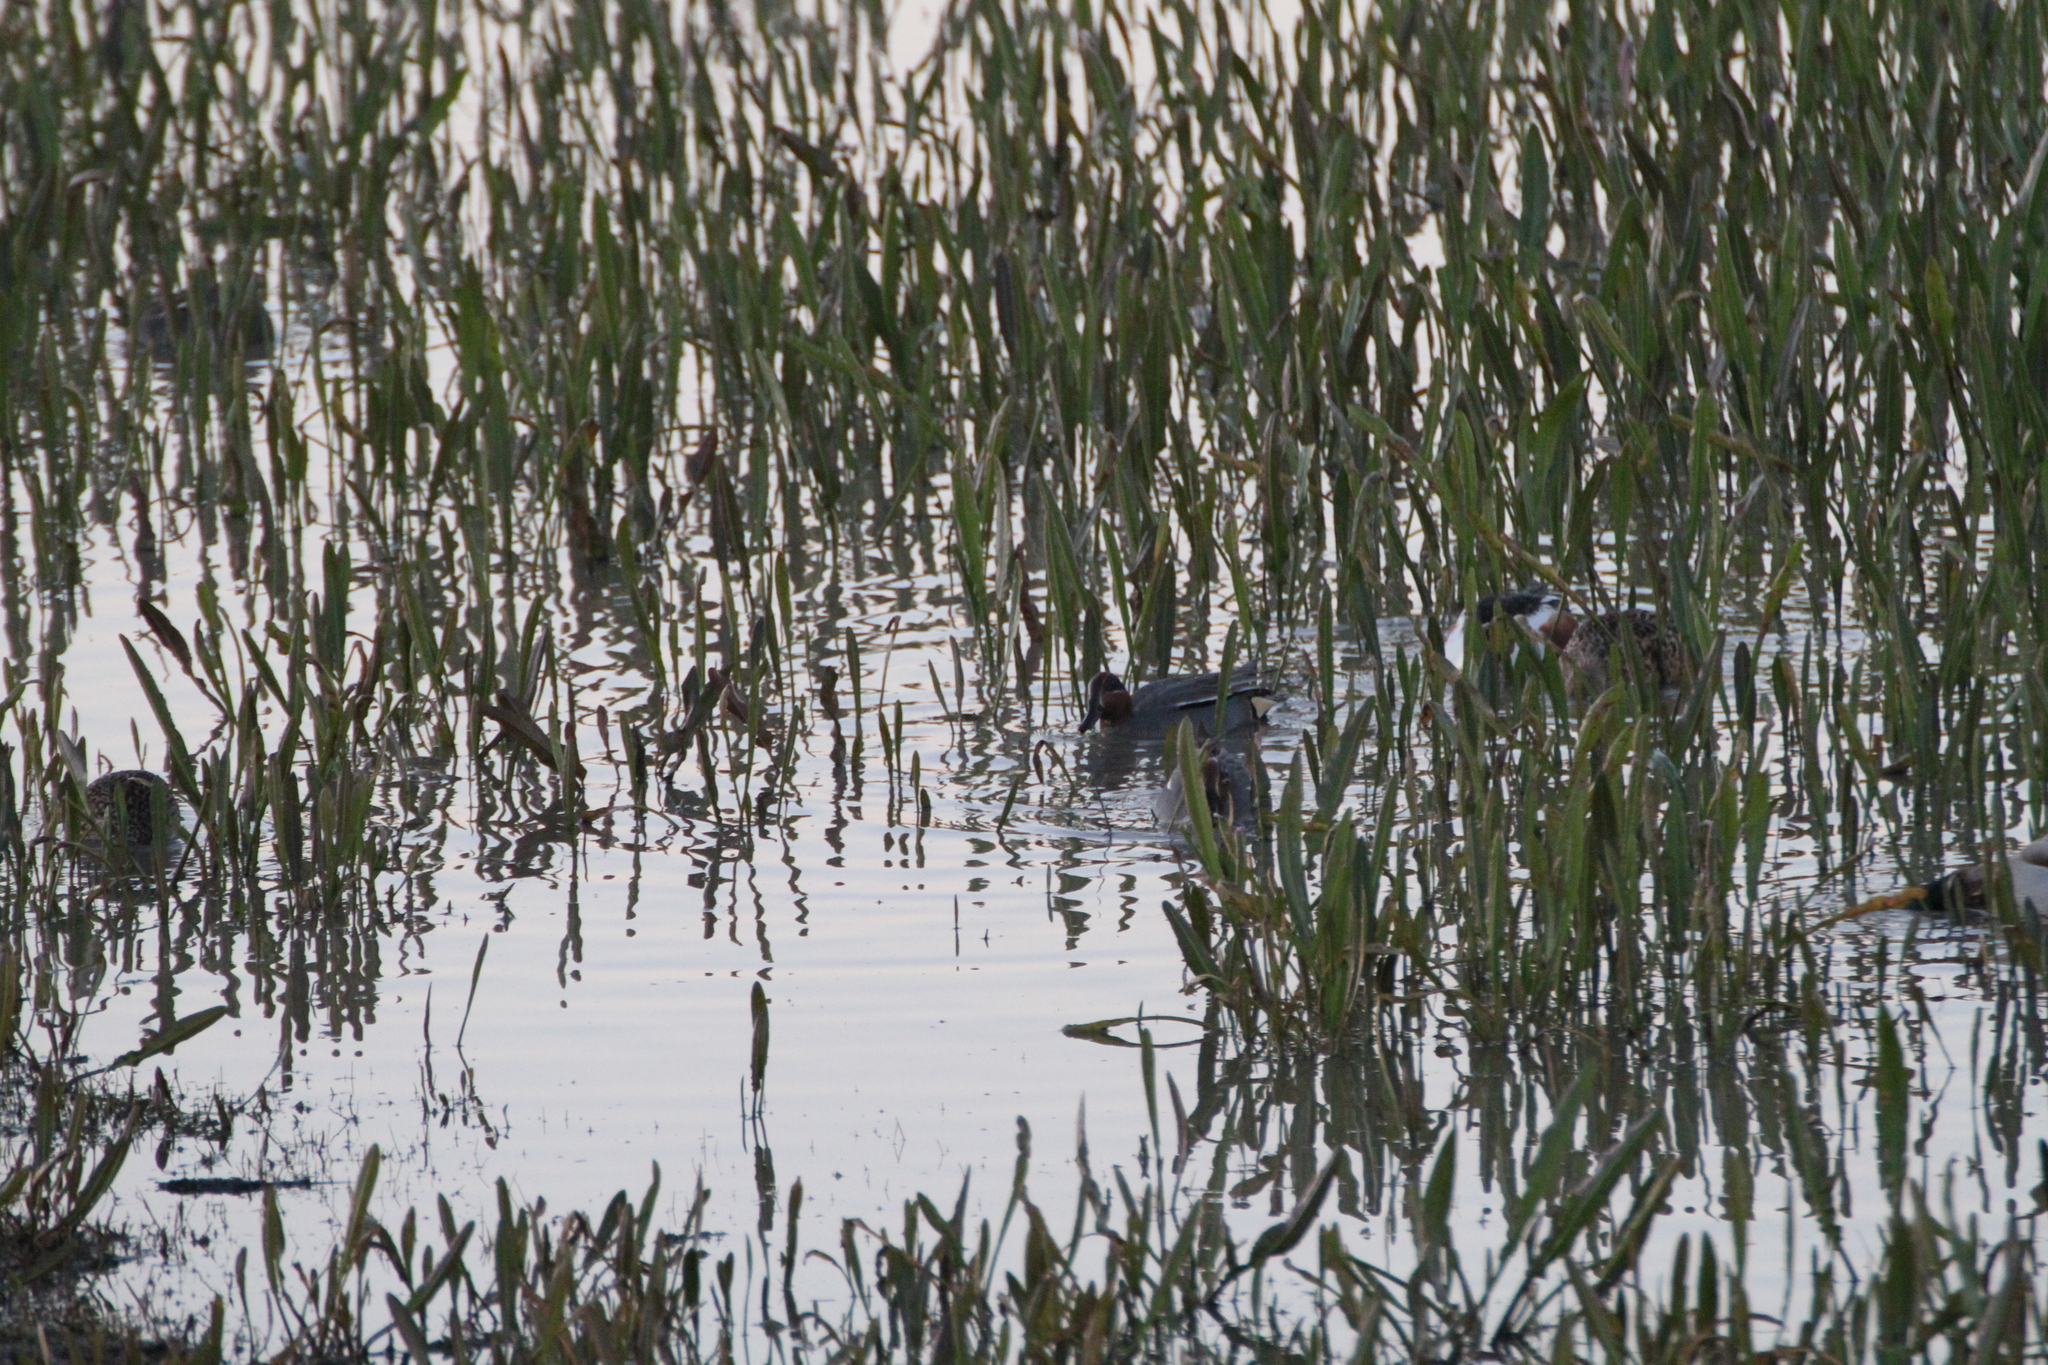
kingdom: Animalia
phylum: Chordata
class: Aves
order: Anseriformes
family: Anatidae
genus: Anas
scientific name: Anas crecca
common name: Eurasian teal
